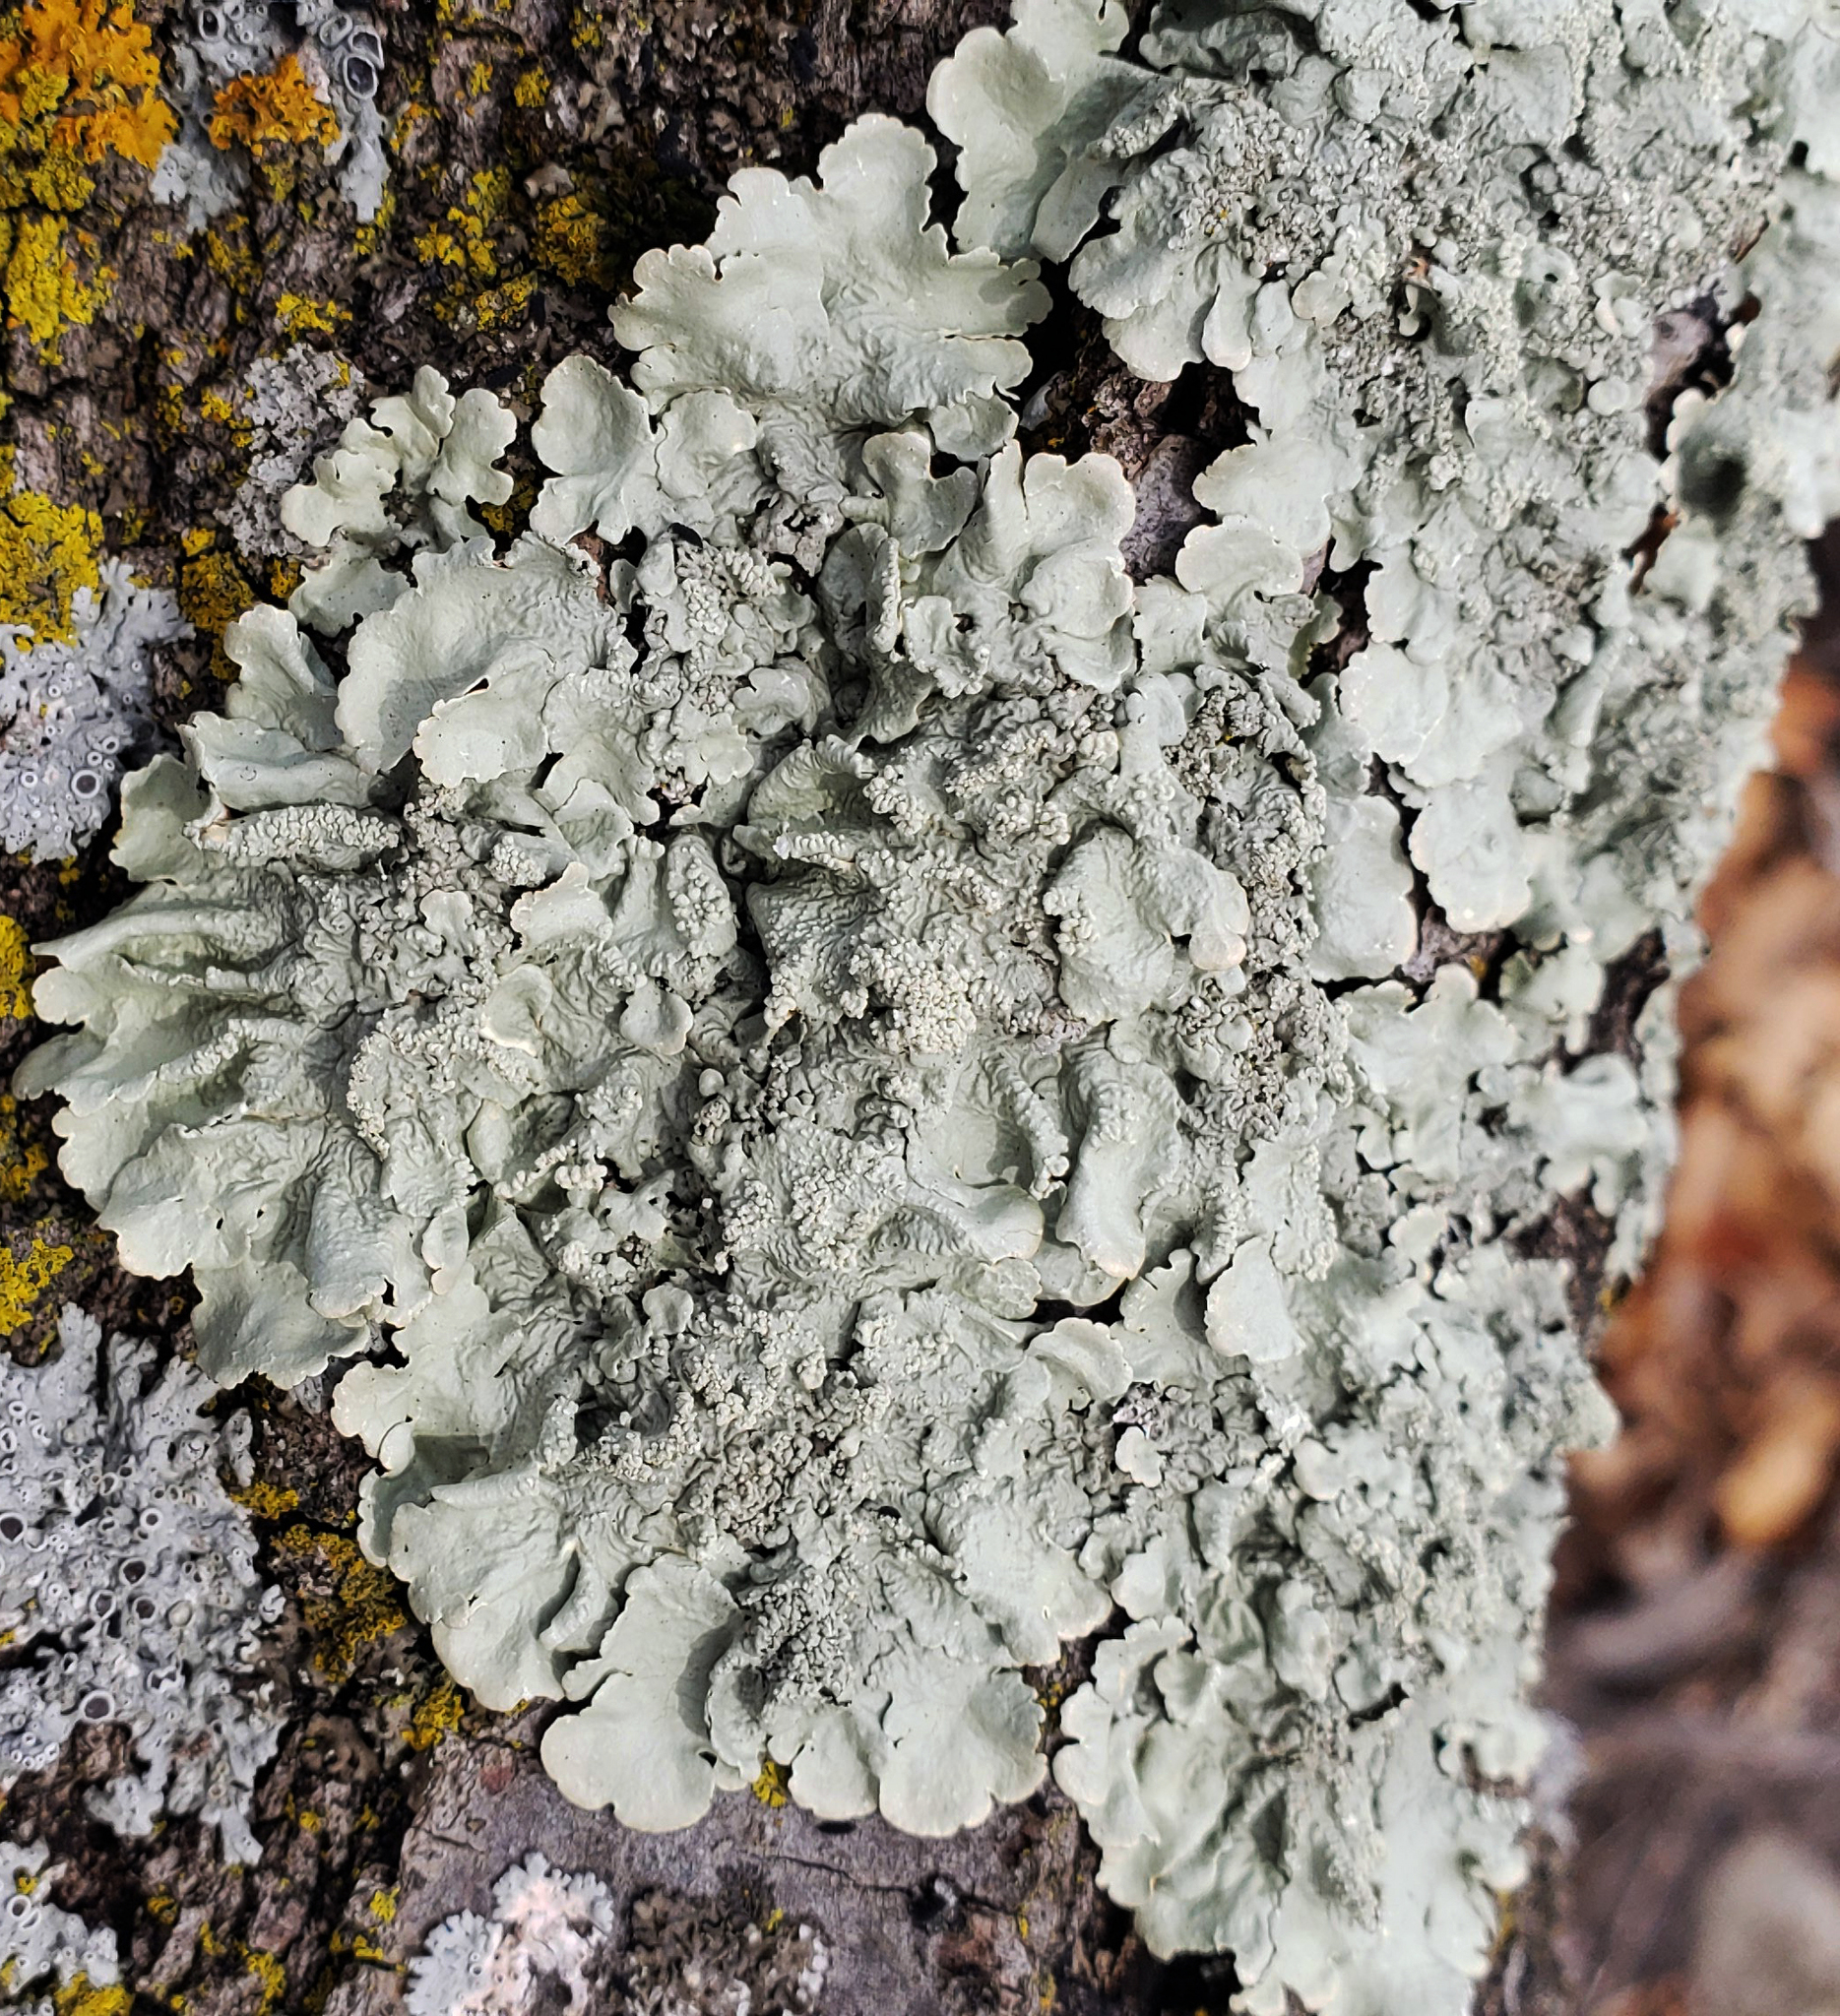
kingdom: Fungi
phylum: Ascomycota
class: Lecanoromycetes
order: Lecanorales
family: Parmeliaceae
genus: Flavoparmelia
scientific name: Flavoparmelia caperata
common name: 40-mile per hour lichen
